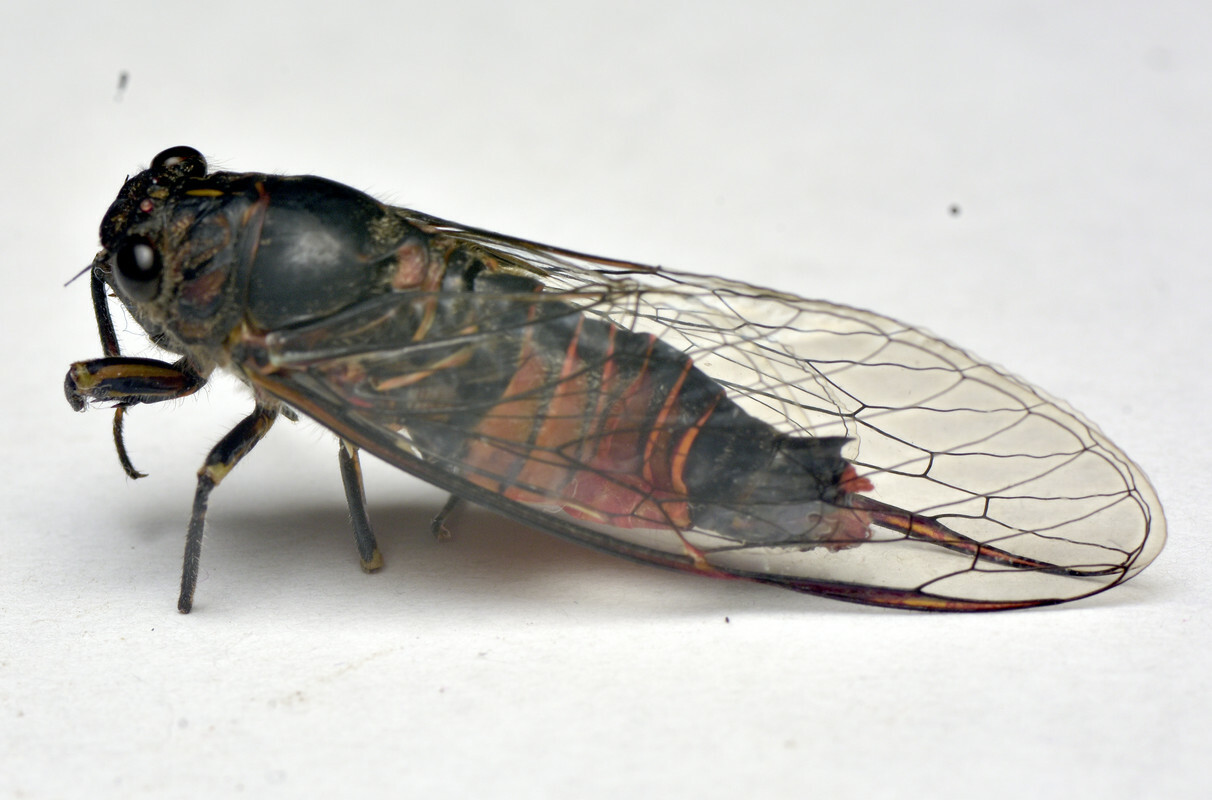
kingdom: Animalia
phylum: Arthropoda
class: Insecta
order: Hemiptera
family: Cicadidae
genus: Yoyetta
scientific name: Yoyetta australicta
